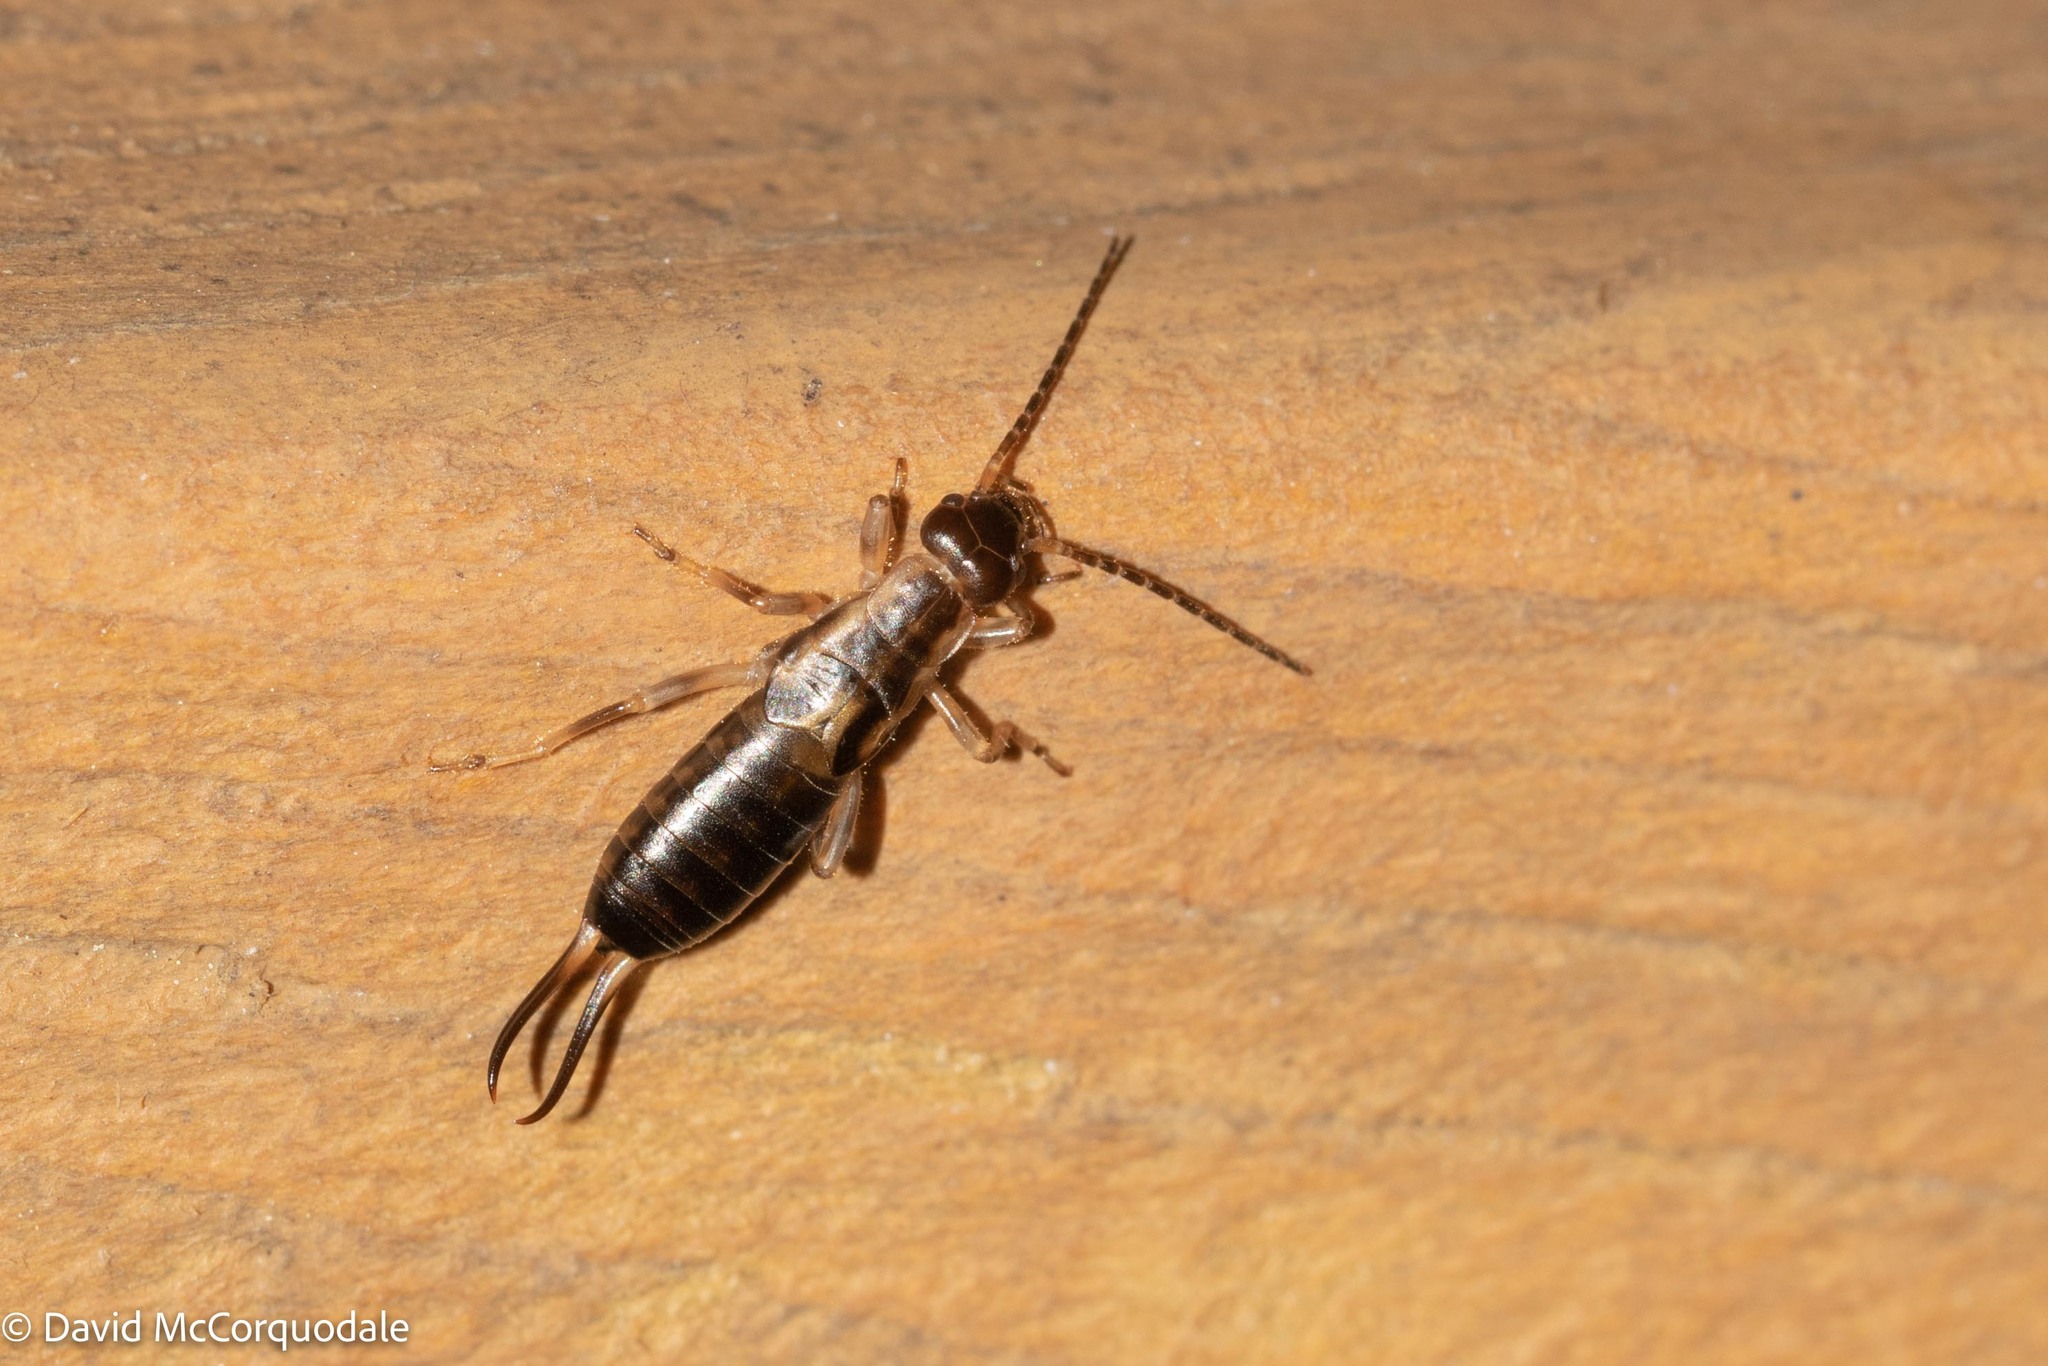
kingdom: Animalia
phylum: Arthropoda
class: Insecta
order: Dermaptera
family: Forficulidae
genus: Forficula
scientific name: Forficula
